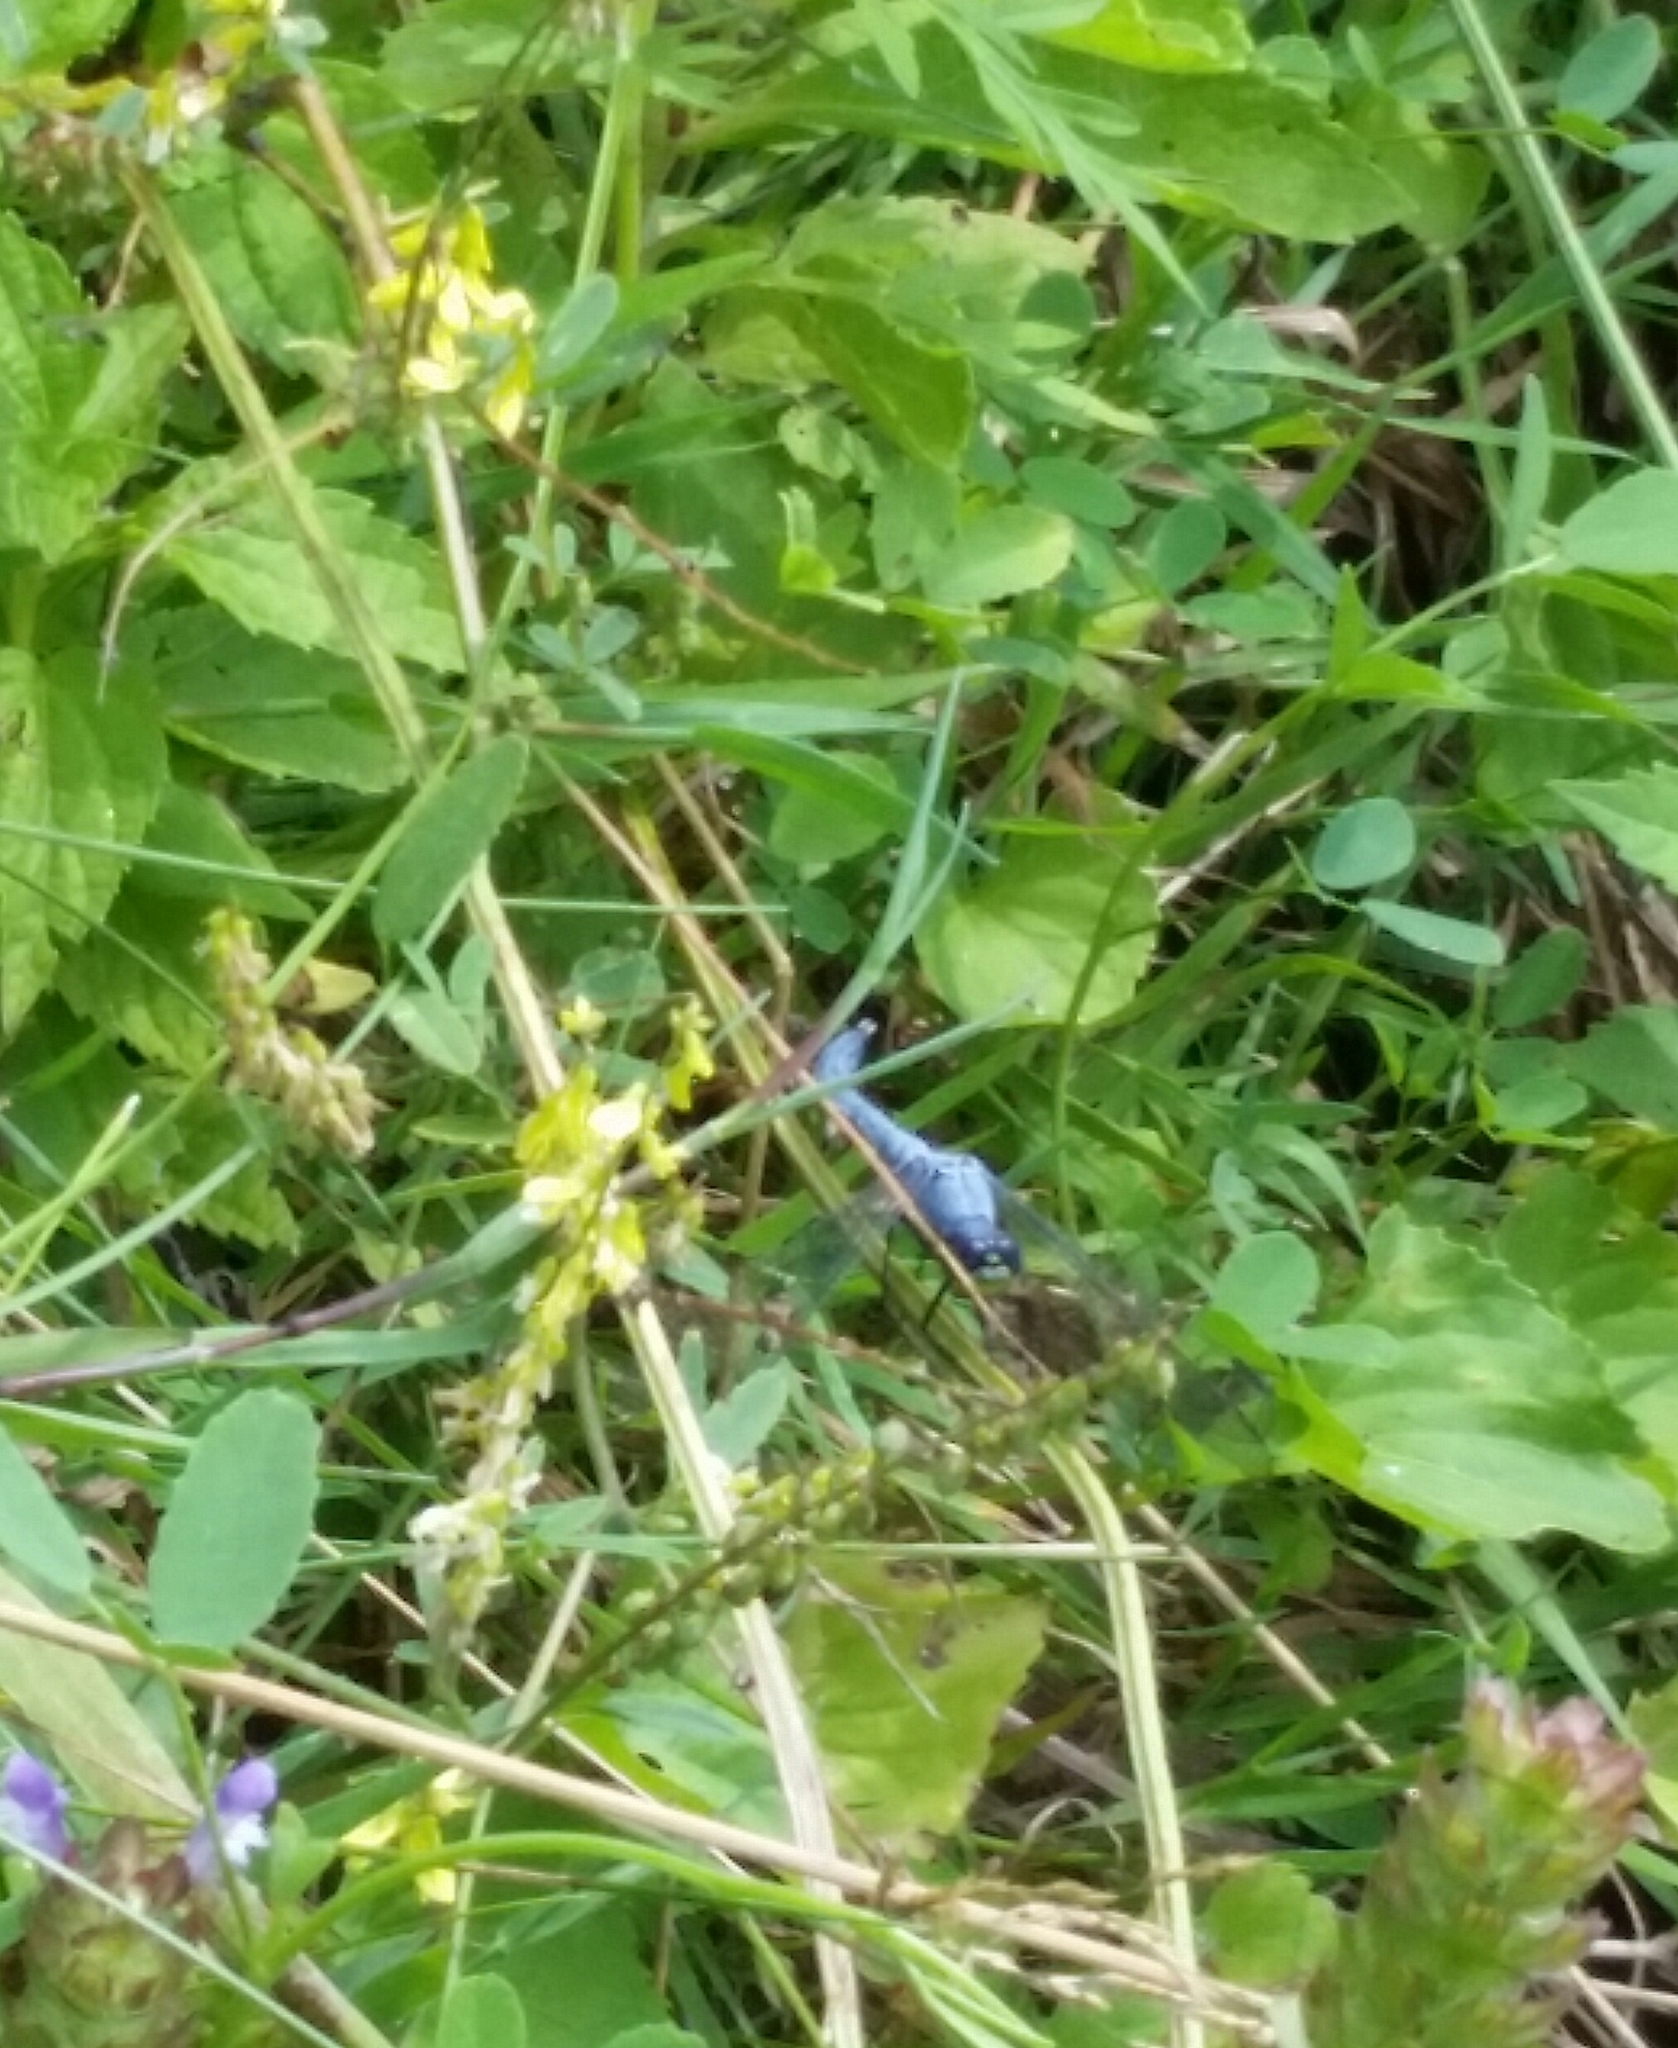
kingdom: Animalia
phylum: Arthropoda
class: Insecta
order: Odonata
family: Libellulidae
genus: Erythemis
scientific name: Erythemis simplicicollis
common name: Eastern pondhawk
